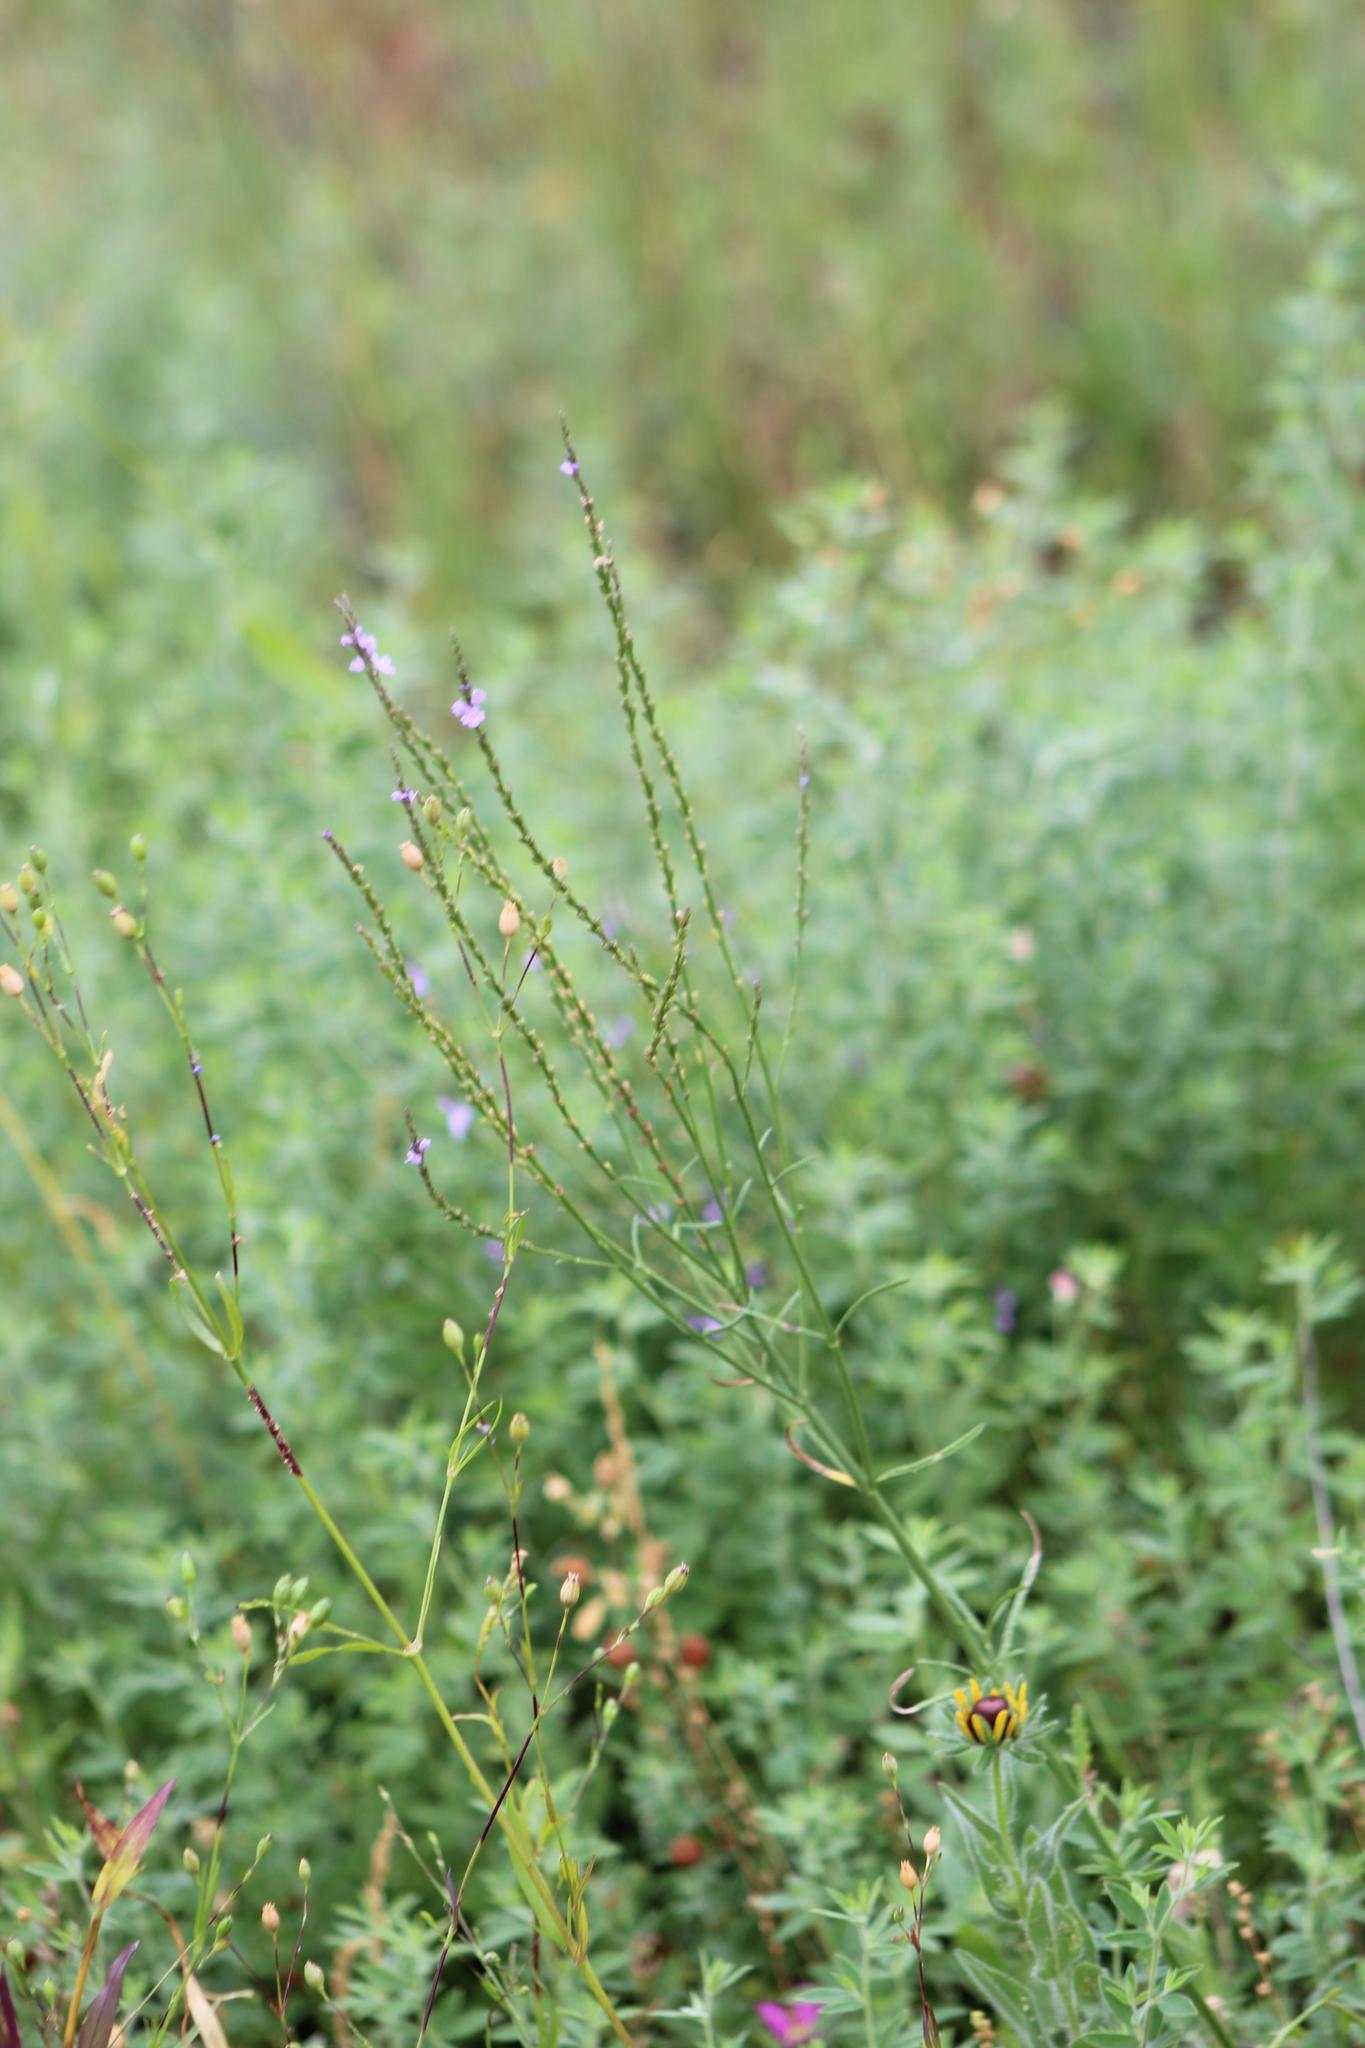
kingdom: Plantae
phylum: Tracheophyta
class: Magnoliopsida
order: Lamiales
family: Verbenaceae
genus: Verbena
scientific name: Verbena halei
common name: Texas vervain
